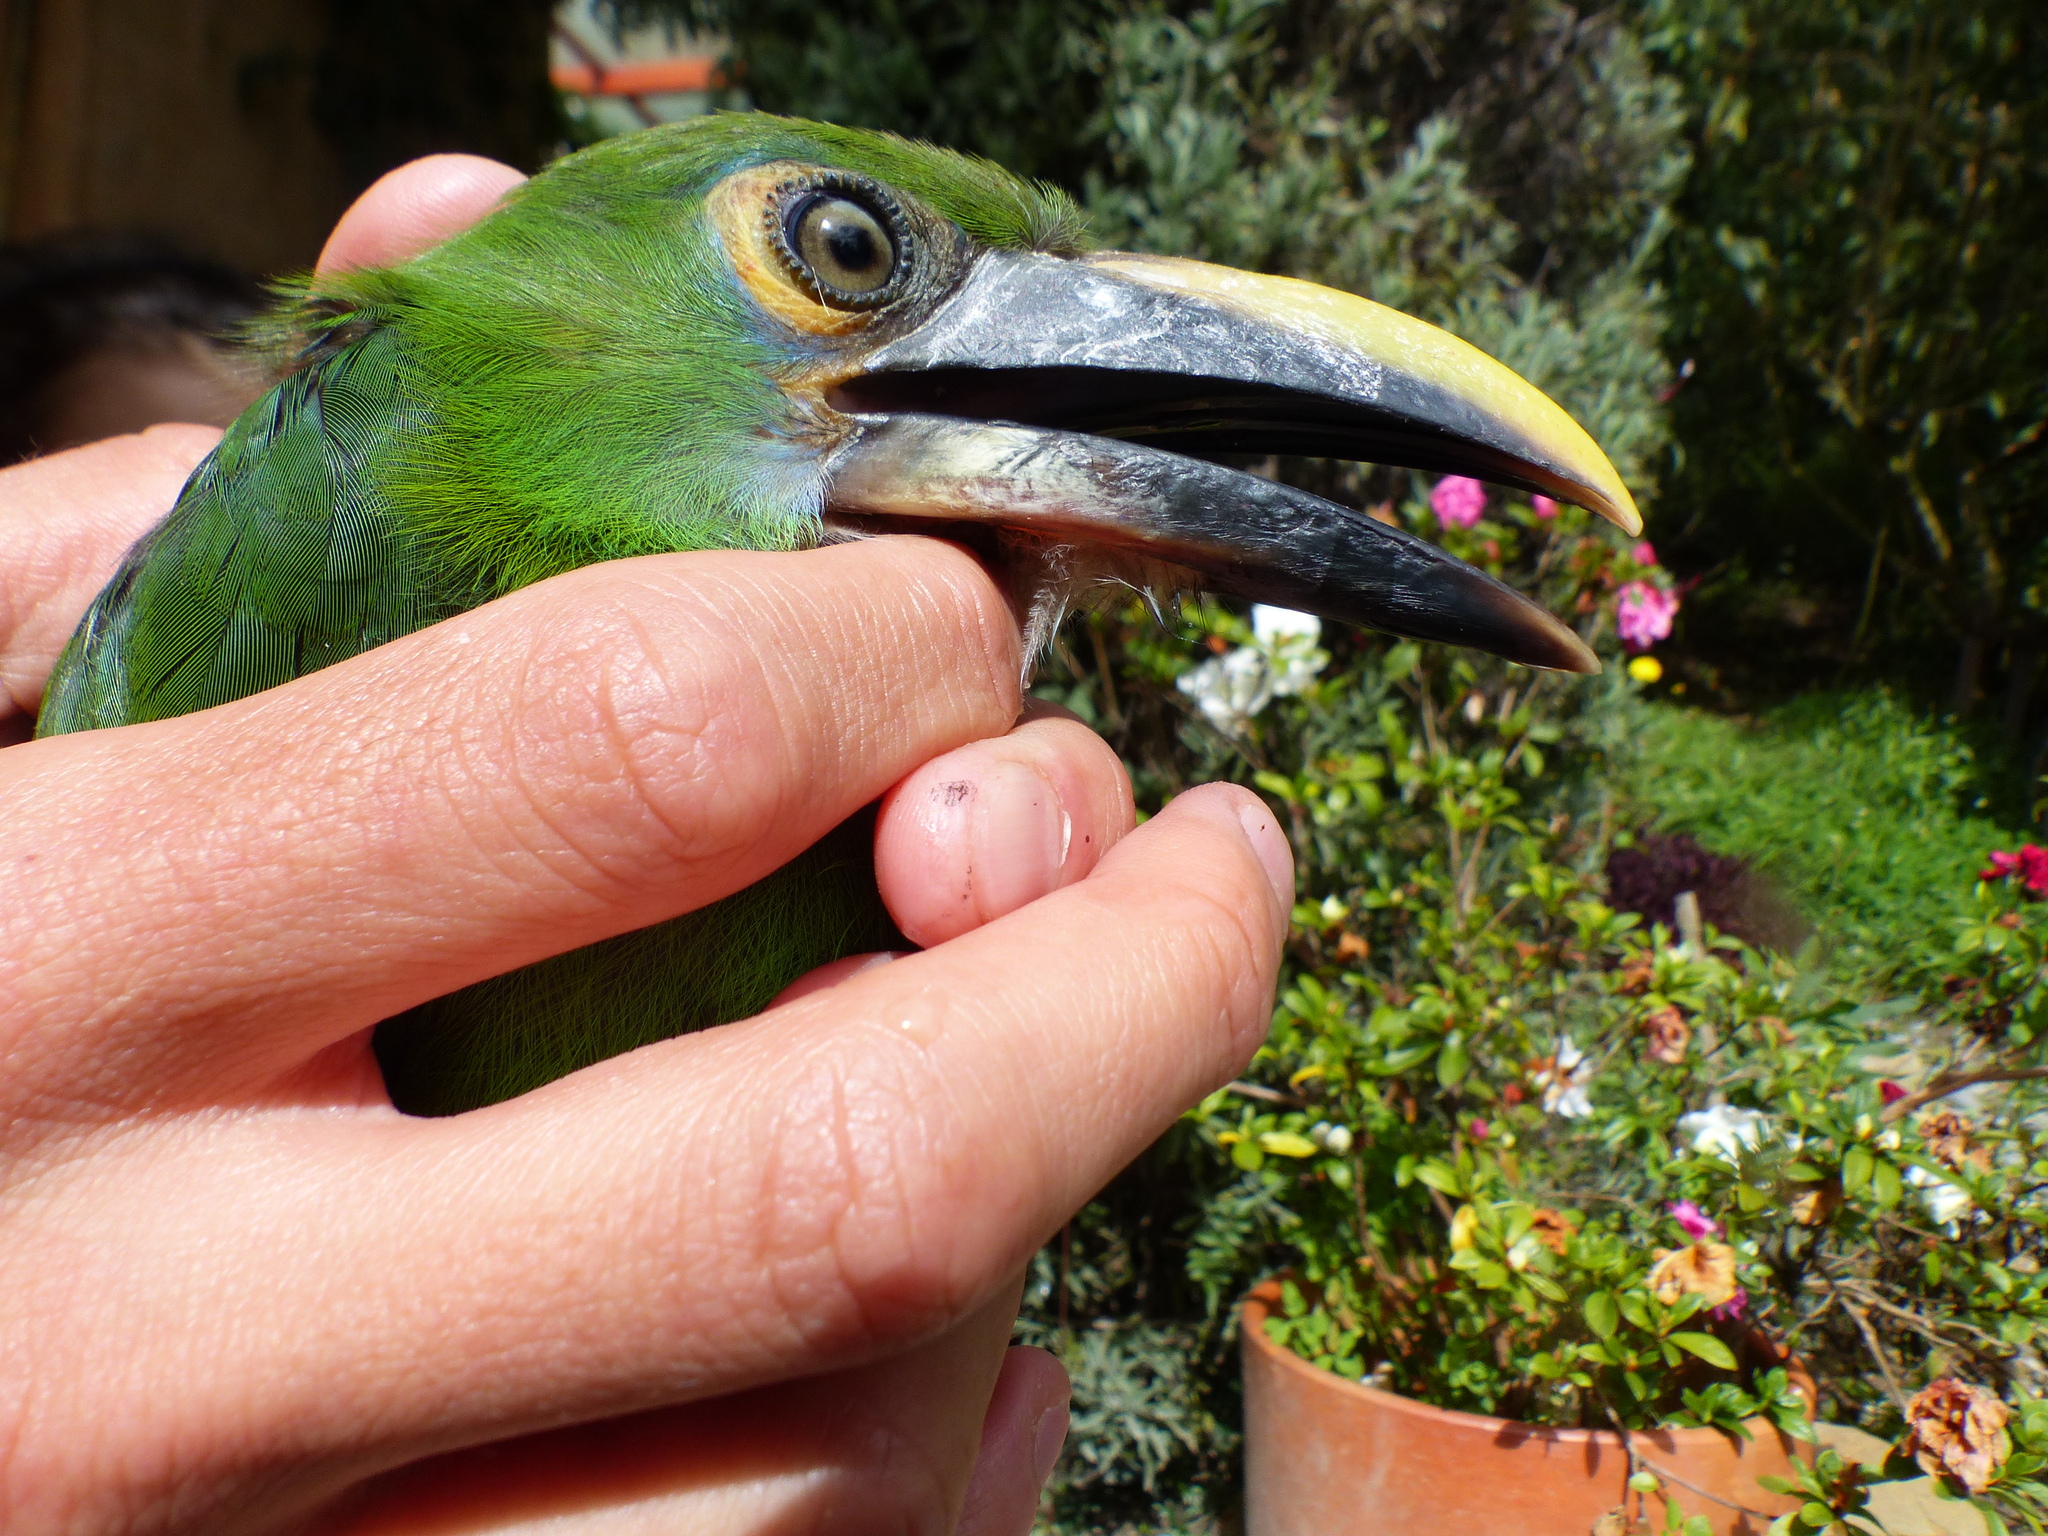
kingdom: Animalia
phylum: Chordata
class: Aves
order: Piciformes
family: Ramphastidae
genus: Aulacorhynchus
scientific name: Aulacorhynchus albivitta
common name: White-throated toucanet
